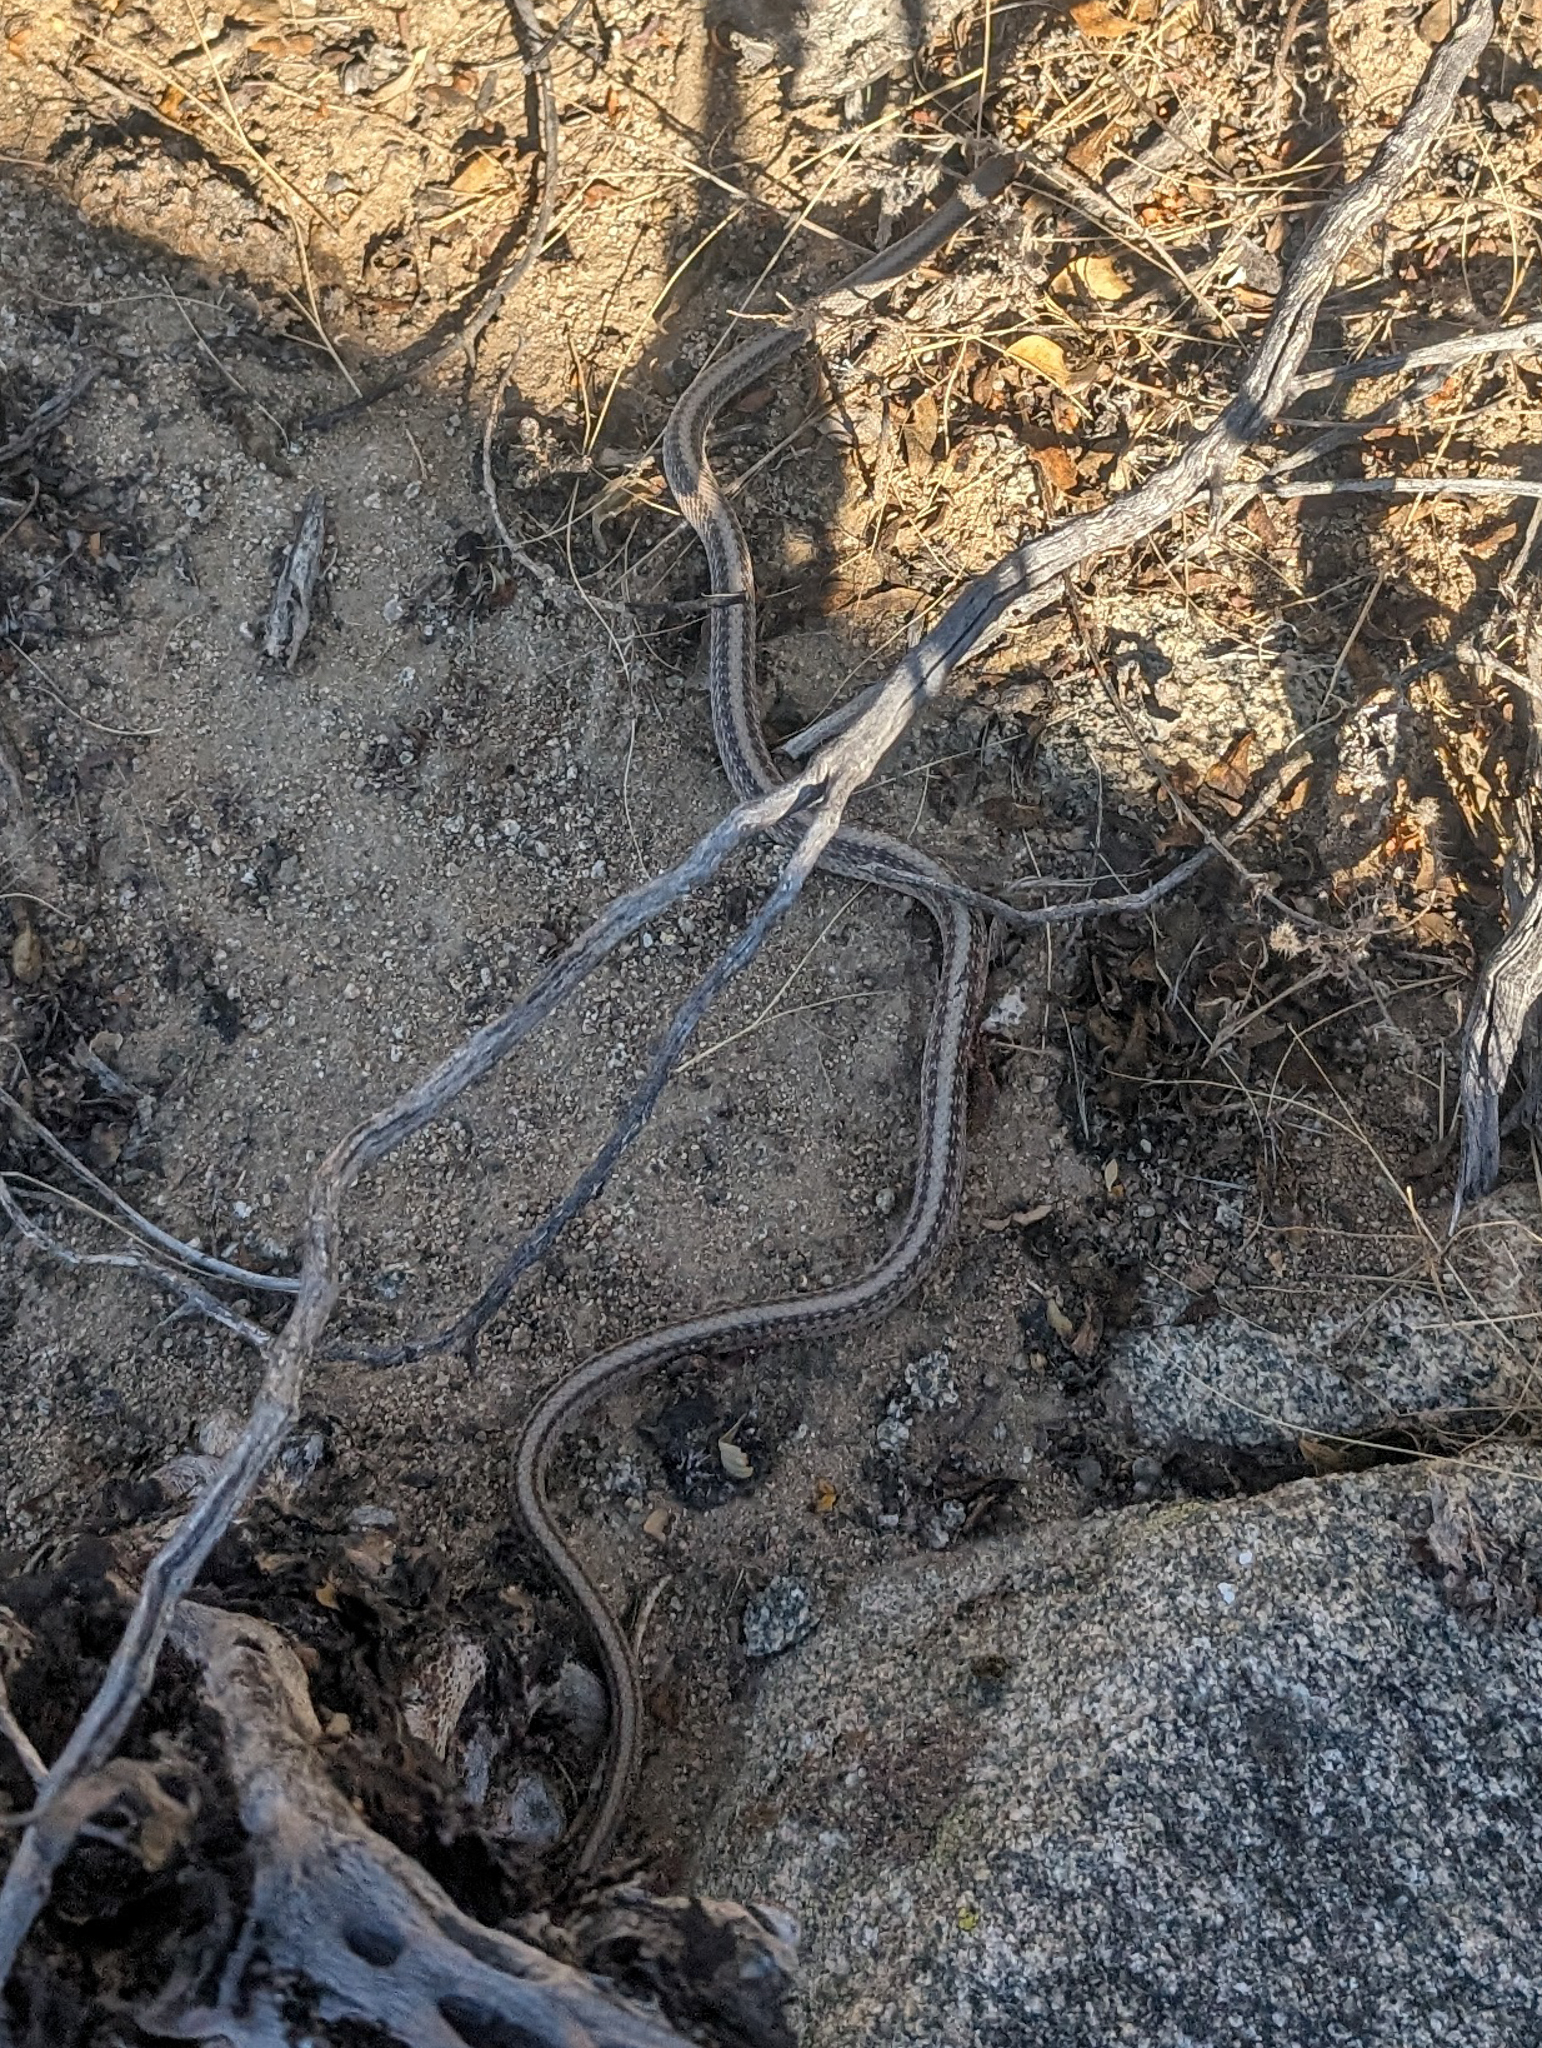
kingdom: Animalia
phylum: Chordata
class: Squamata
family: Colubridae
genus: Salvadora
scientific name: Salvadora hexalepis
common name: Western patchnose snake
